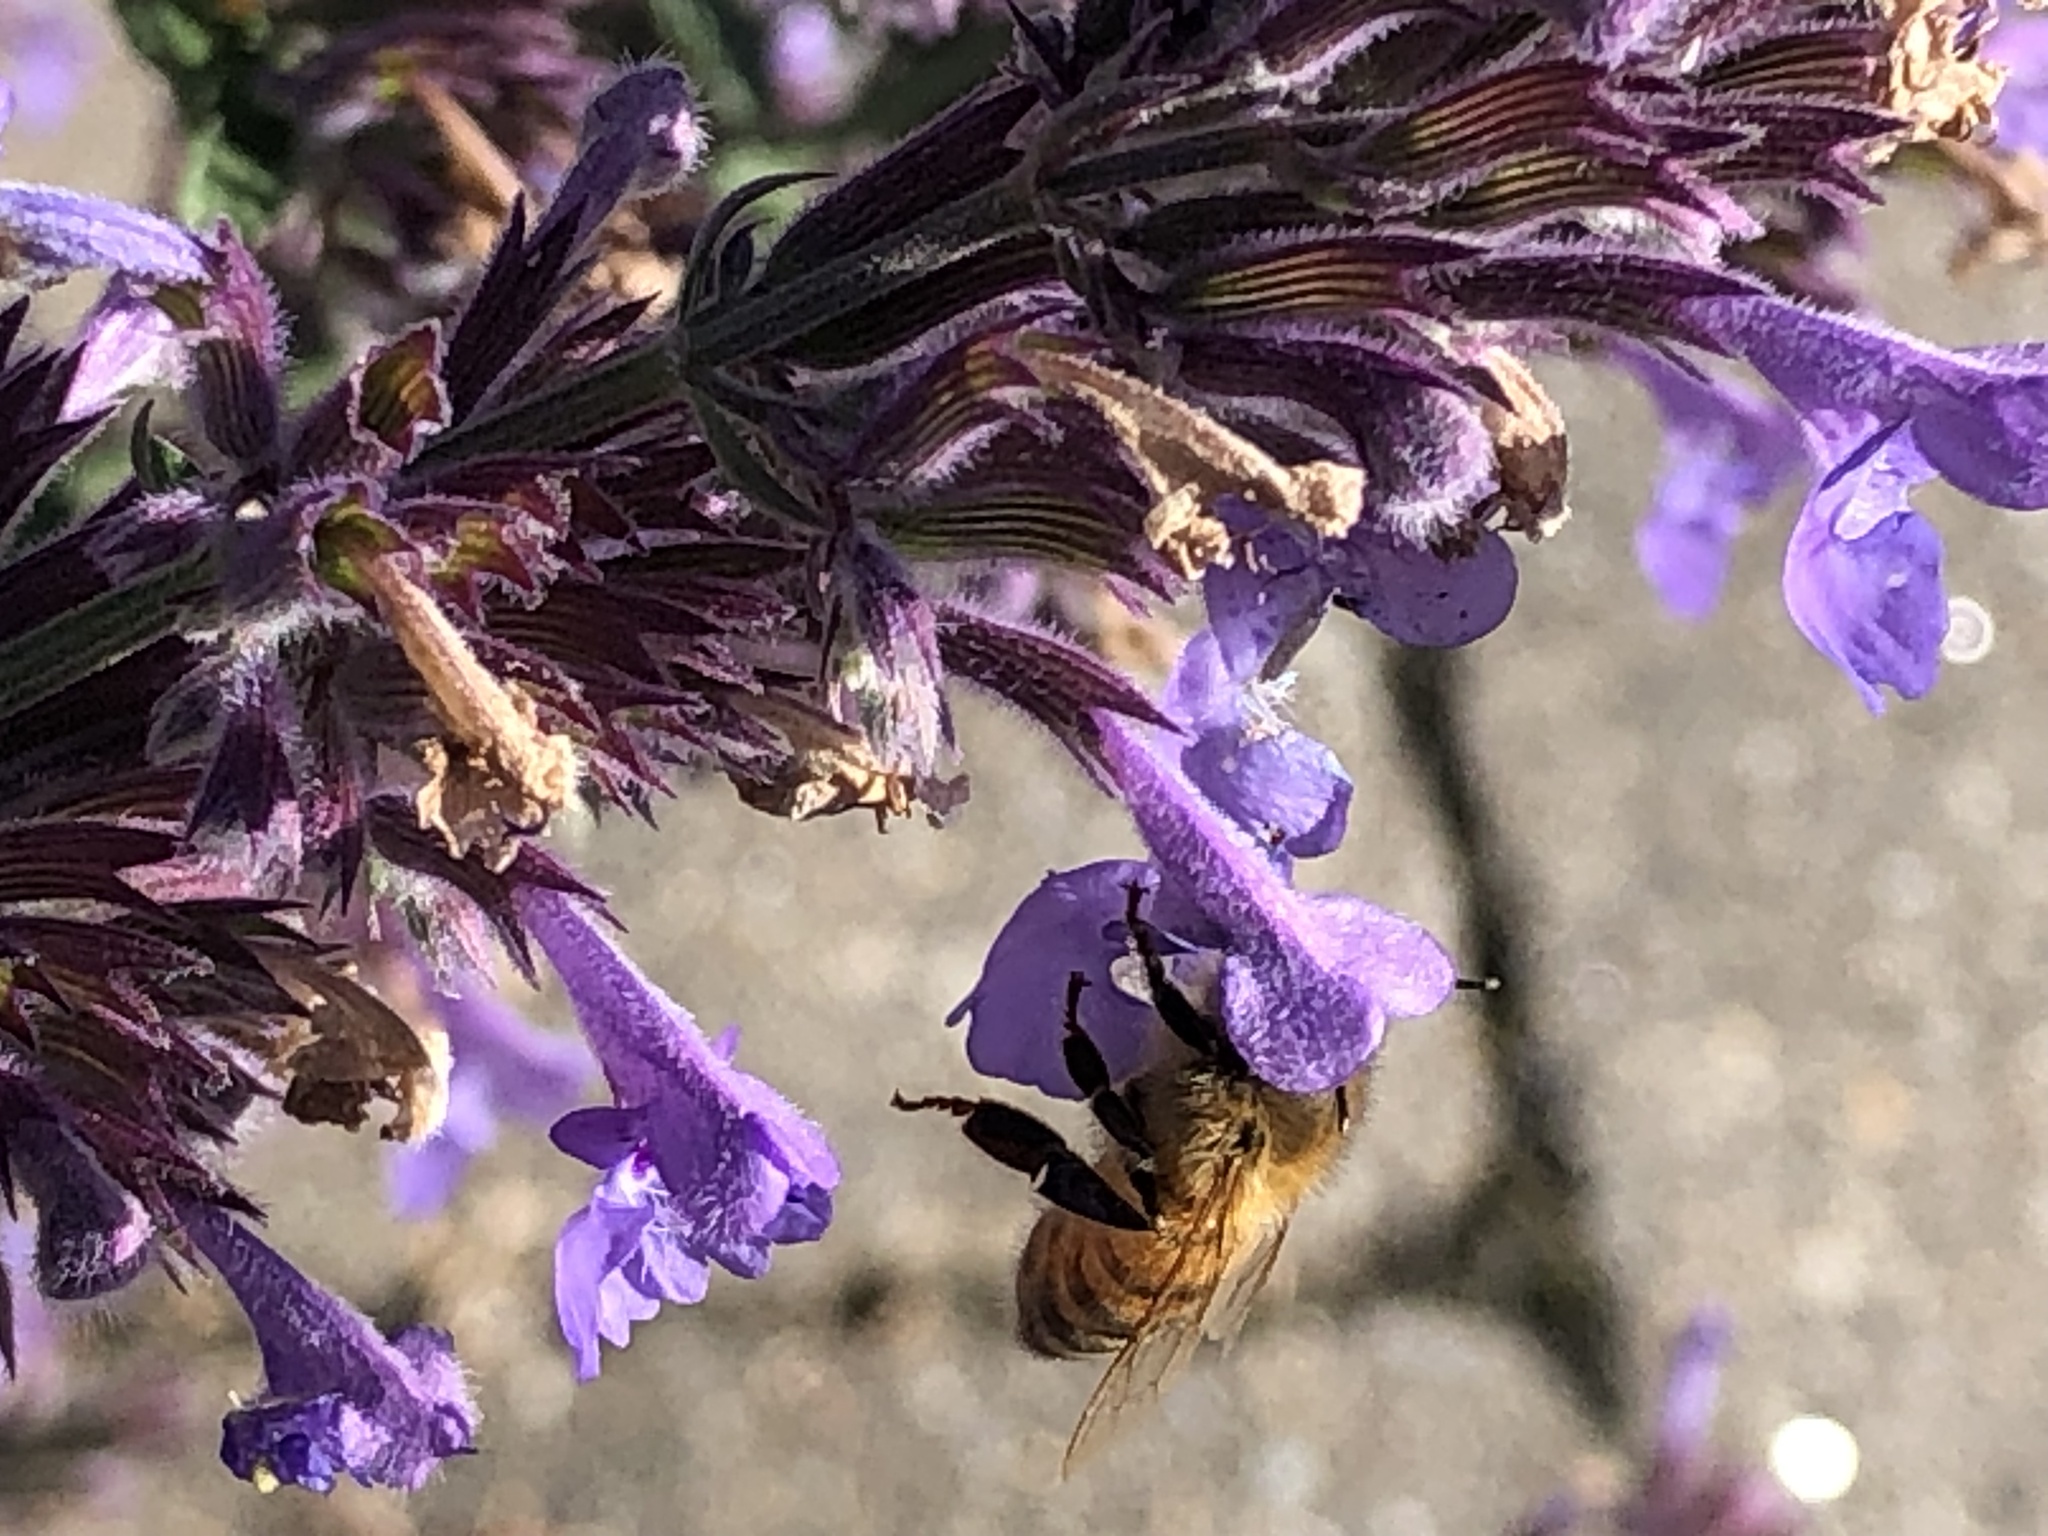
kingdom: Animalia
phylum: Arthropoda
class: Insecta
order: Hymenoptera
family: Apidae
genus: Apis
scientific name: Apis mellifera
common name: Honey bee
